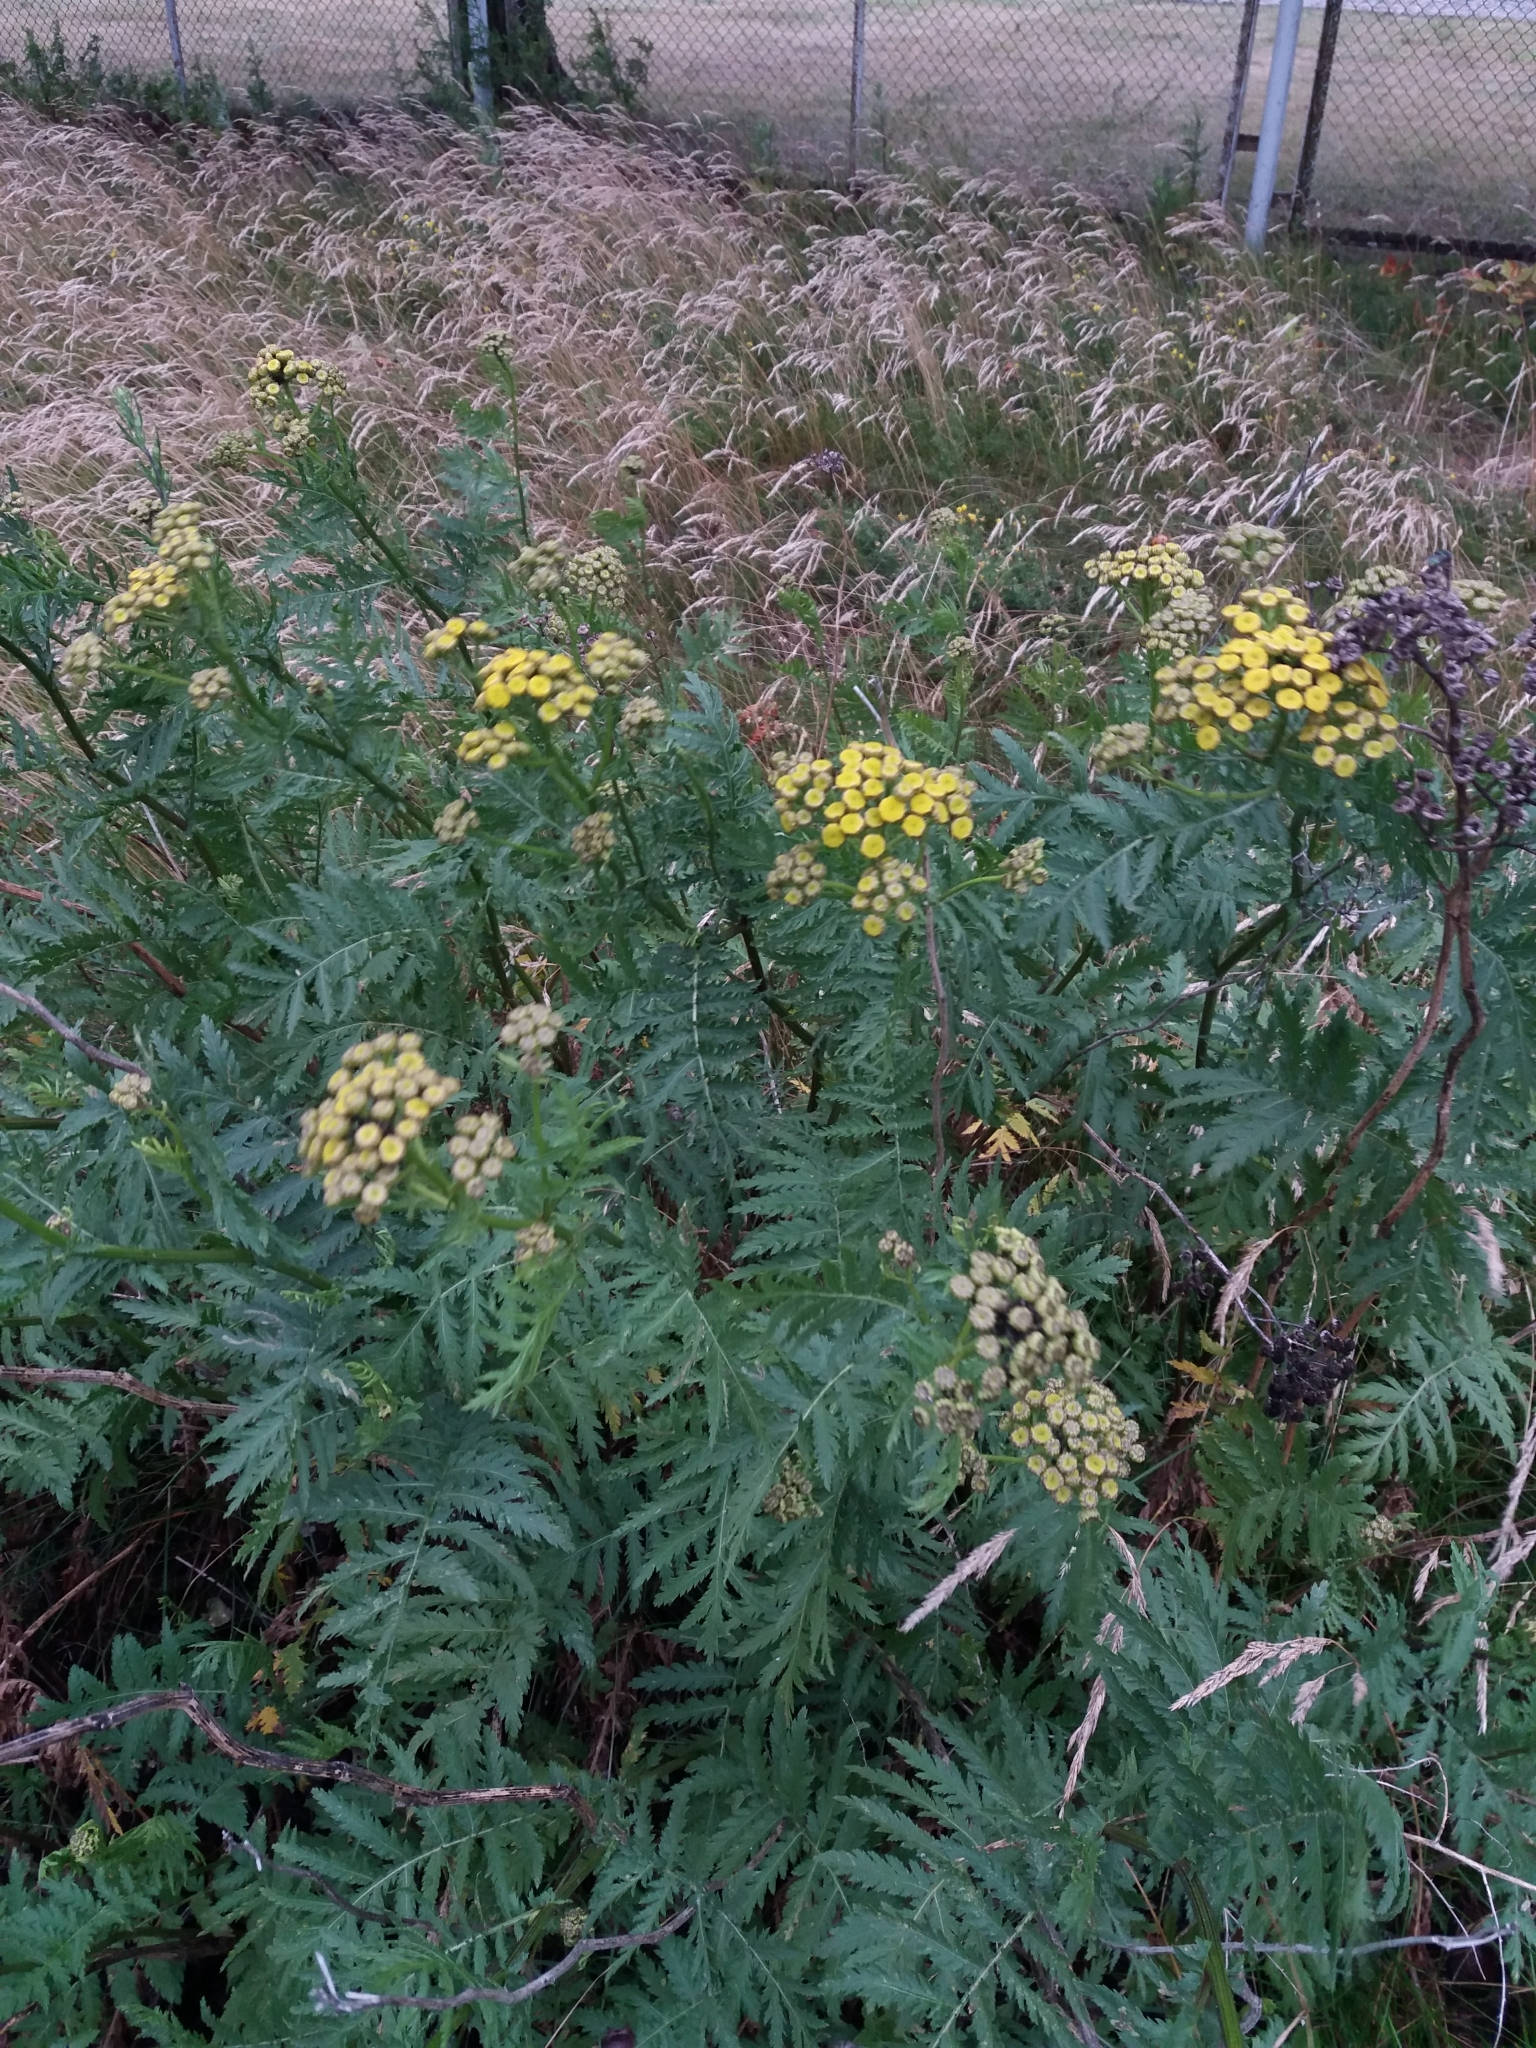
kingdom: Plantae
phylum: Tracheophyta
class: Magnoliopsida
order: Asterales
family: Asteraceae
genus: Tanacetum
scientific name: Tanacetum vulgare
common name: Common tansy
